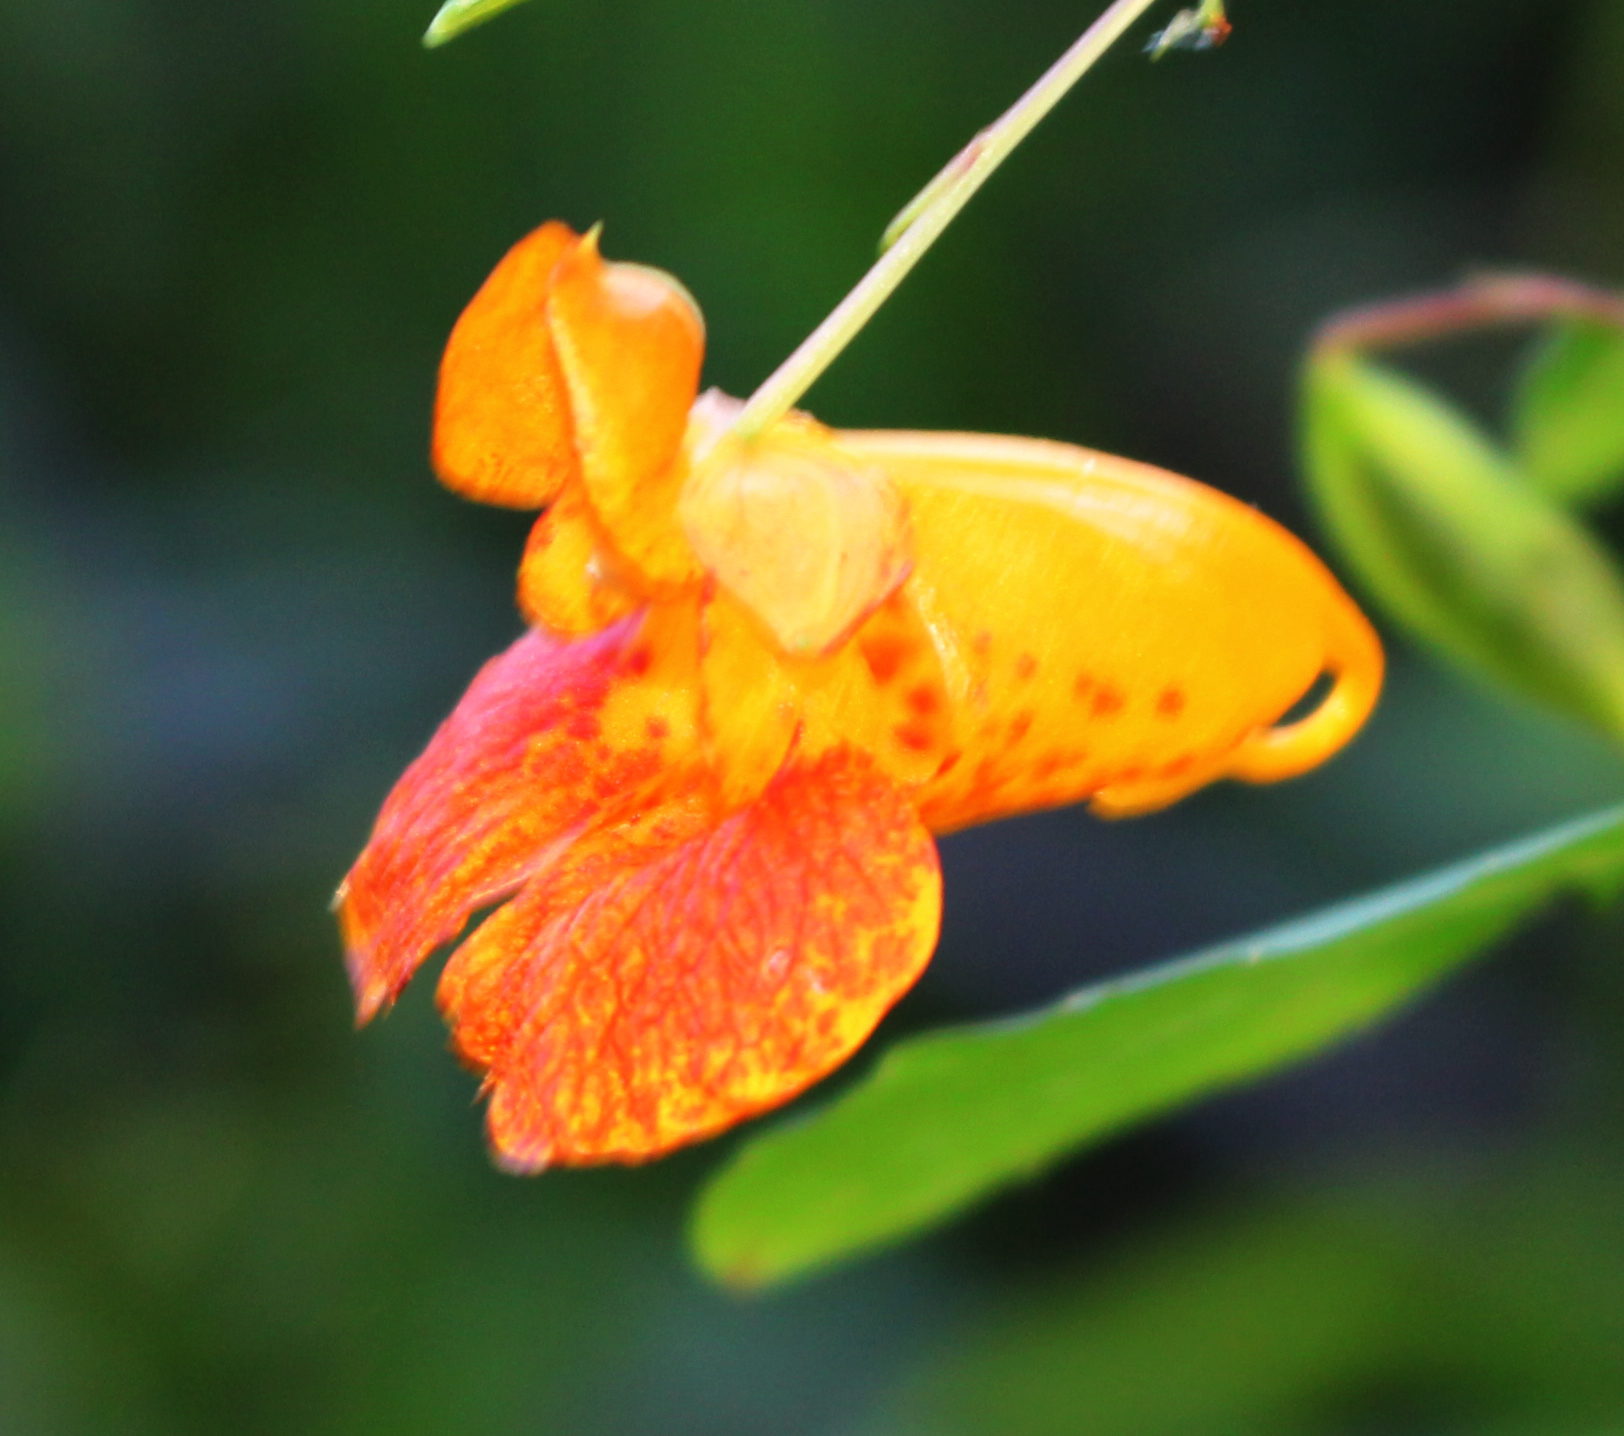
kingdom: Plantae
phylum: Tracheophyta
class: Magnoliopsida
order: Ericales
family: Balsaminaceae
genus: Impatiens
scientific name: Impatiens capensis
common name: Orange balsam
